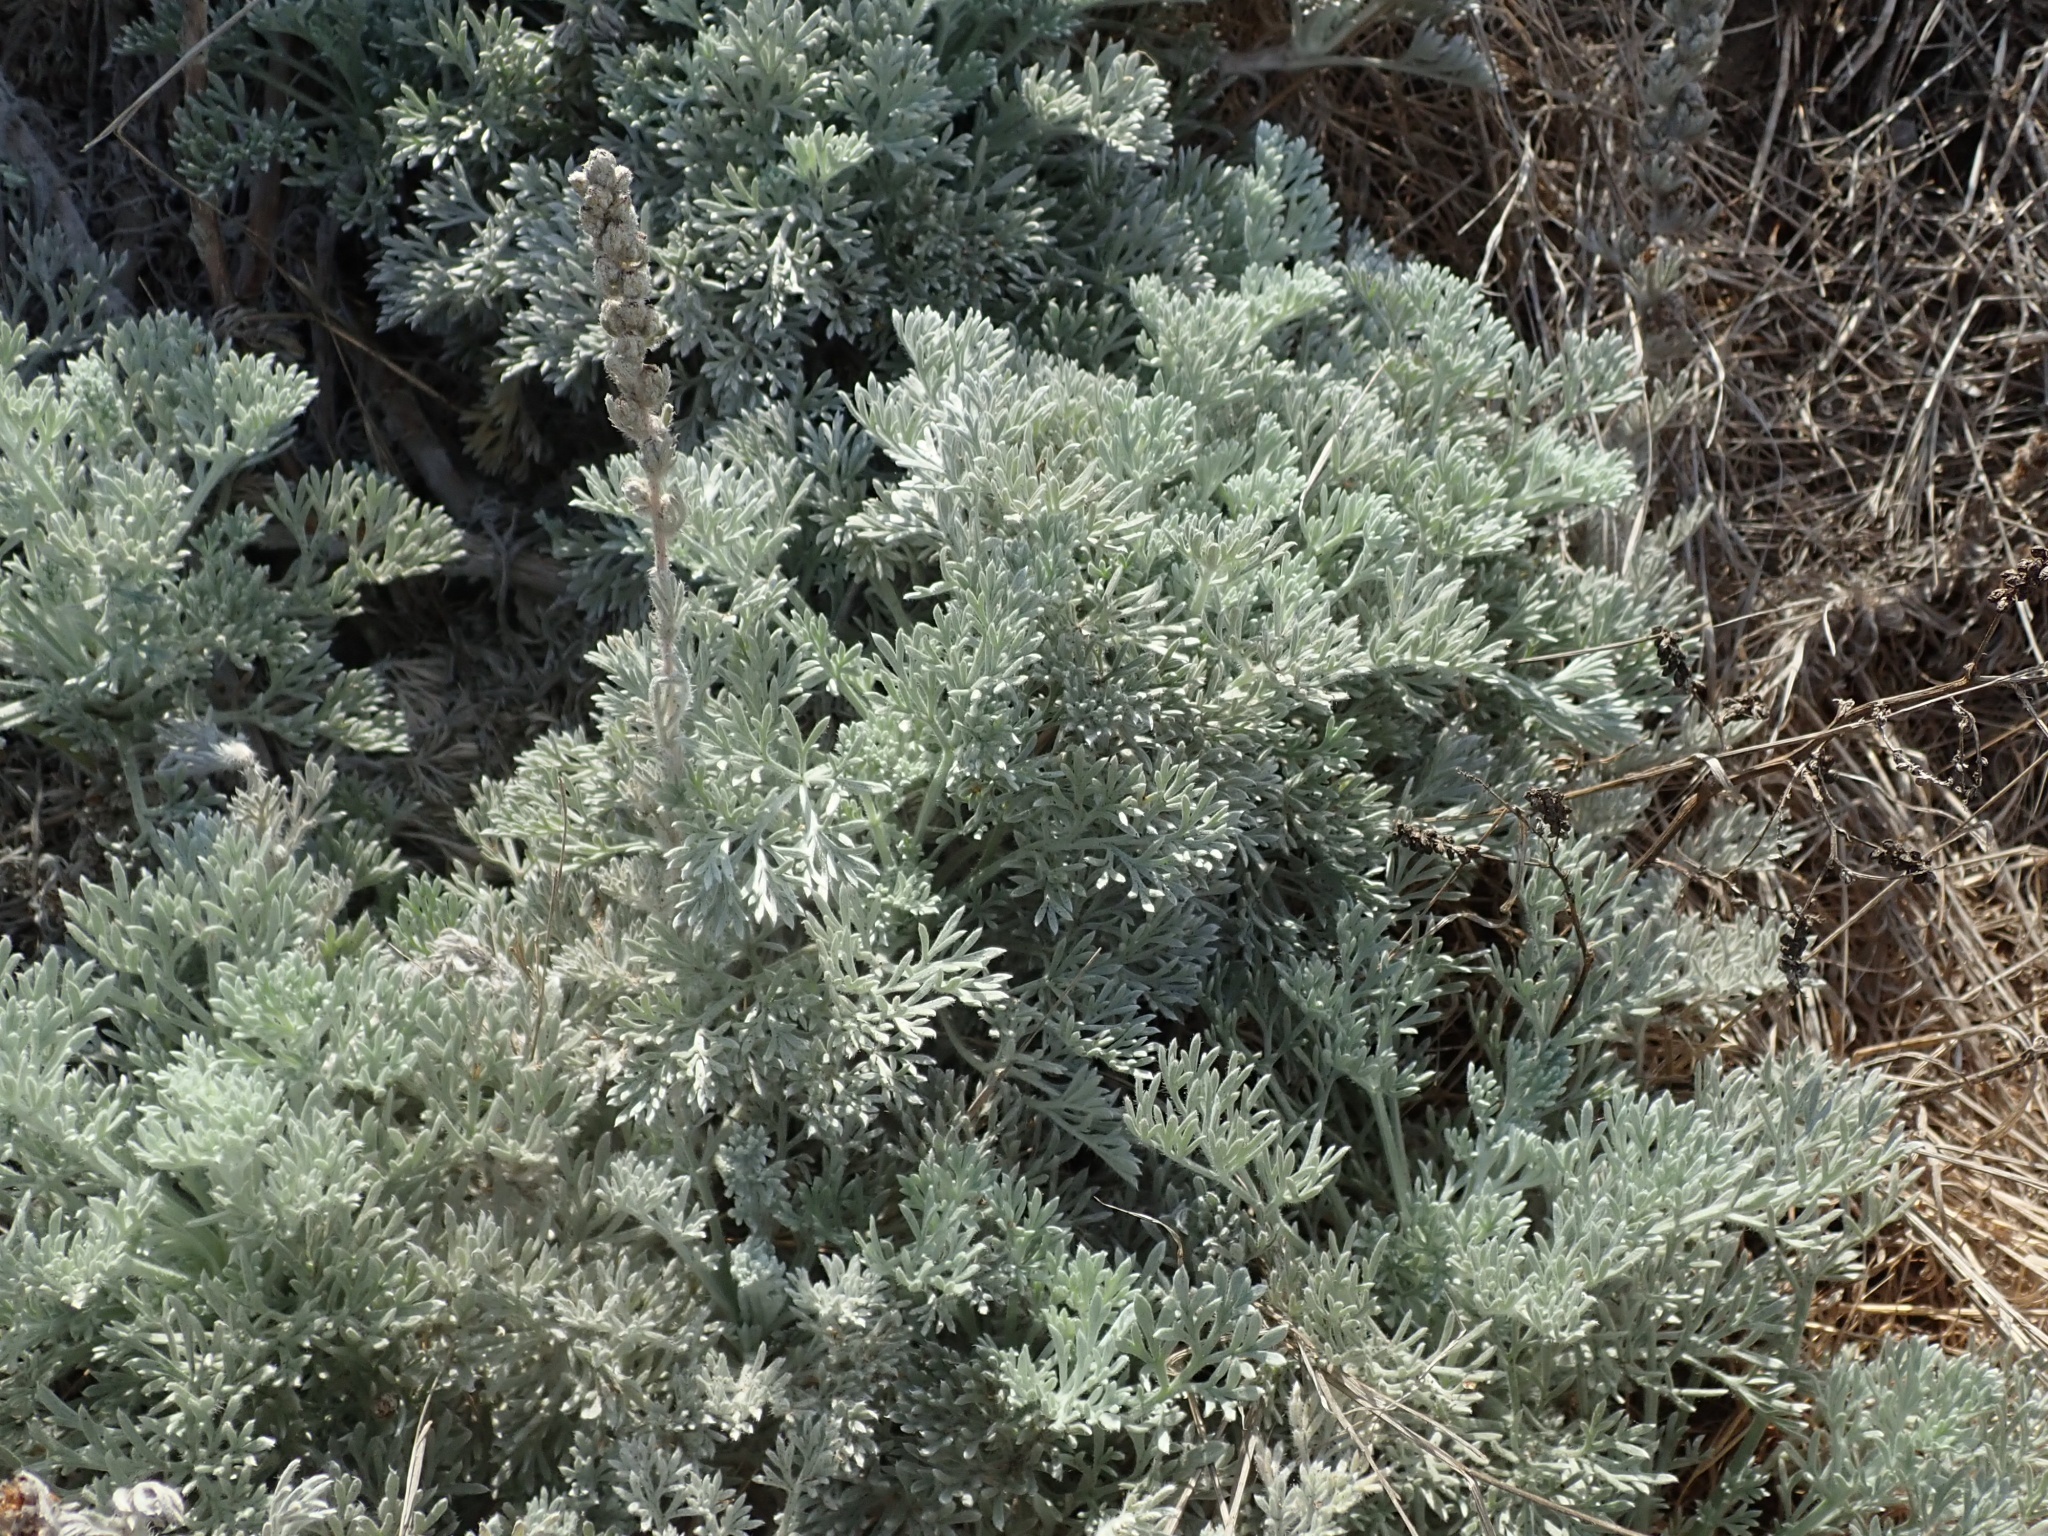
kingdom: Plantae
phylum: Tracheophyta
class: Magnoliopsida
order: Asterales
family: Asteraceae
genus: Artemisia
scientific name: Artemisia pycnocephala
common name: Coastal sagewort
